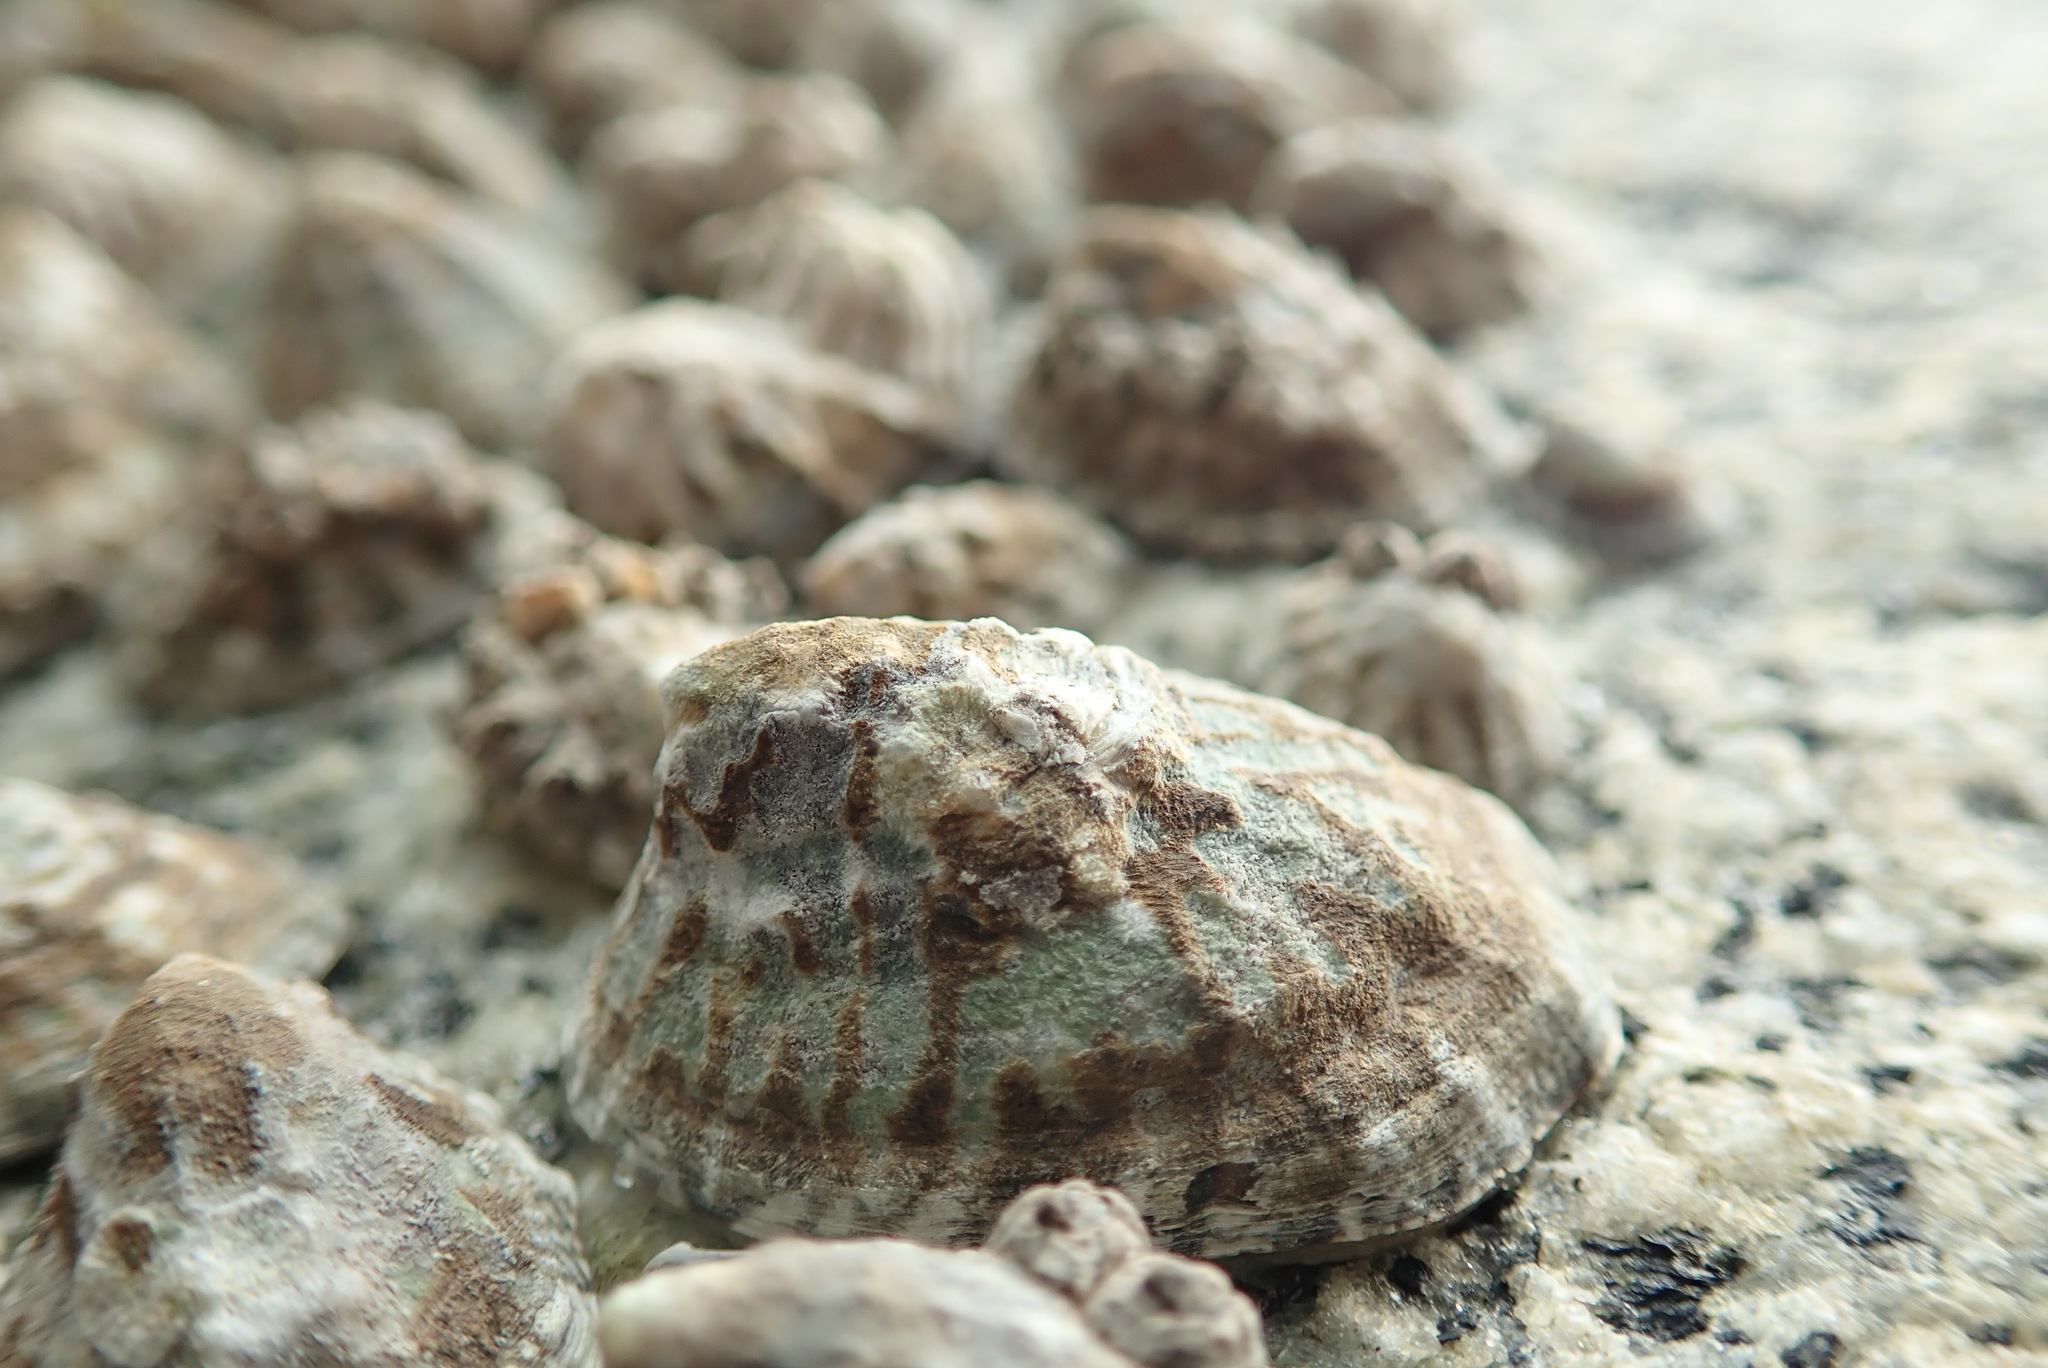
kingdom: Animalia
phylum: Mollusca
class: Gastropoda
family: Lottiidae
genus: Lottia
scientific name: Lottia digitalis
